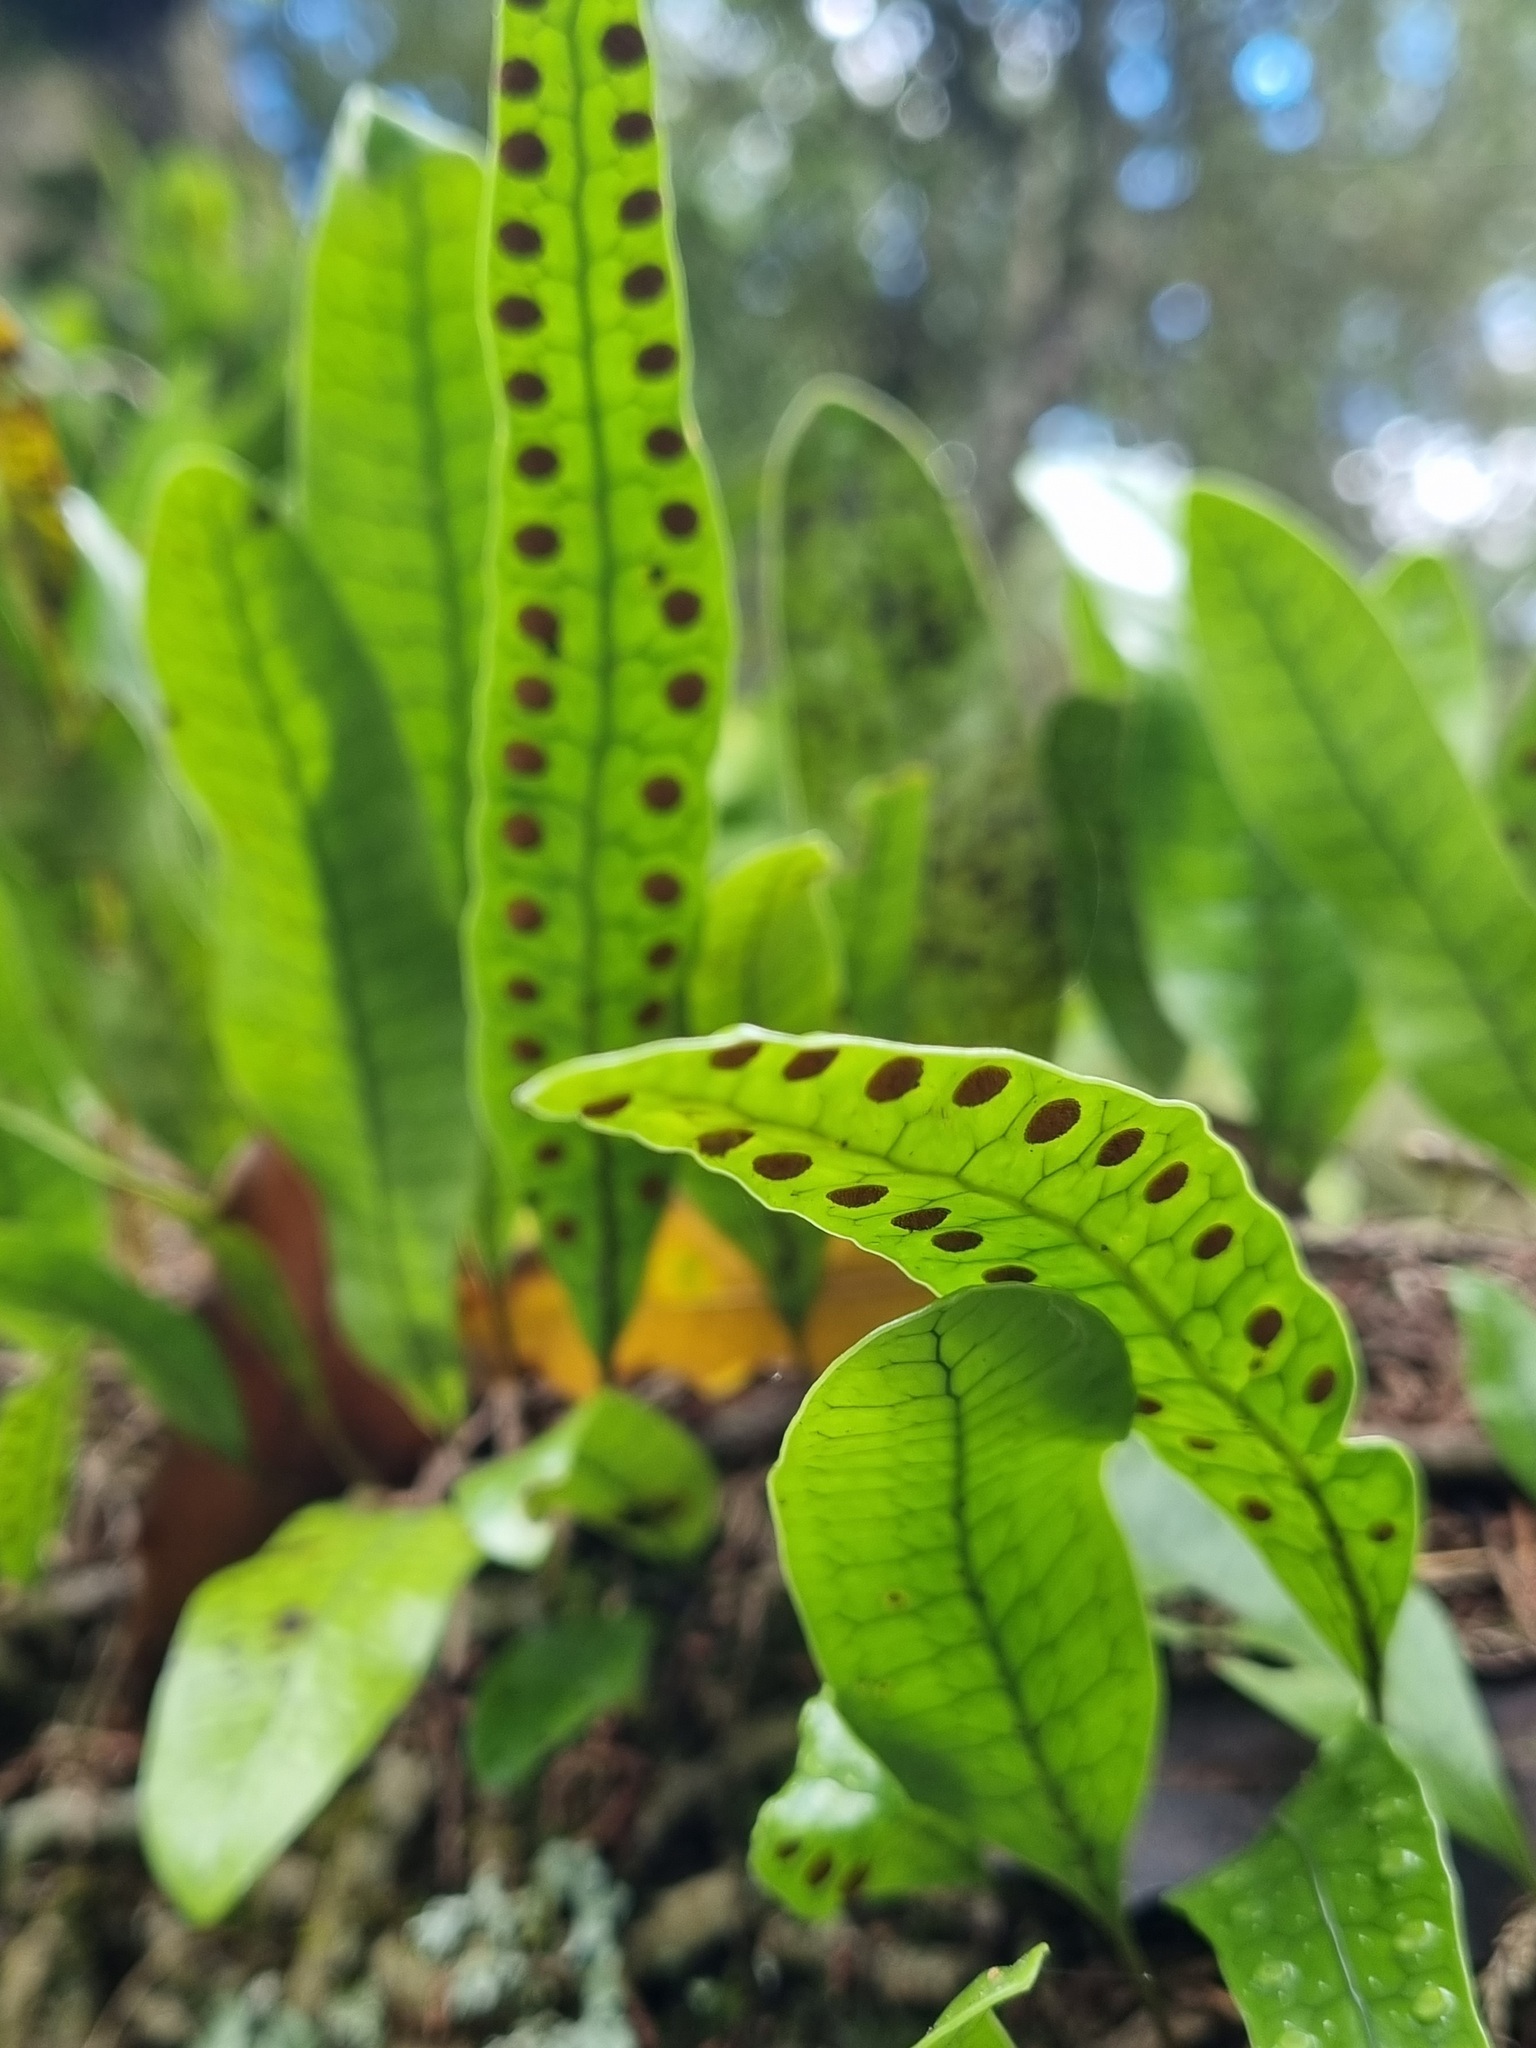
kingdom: Plantae
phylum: Tracheophyta
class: Polypodiopsida
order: Polypodiales
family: Polypodiaceae
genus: Lecanopteris
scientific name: Lecanopteris pustulata
